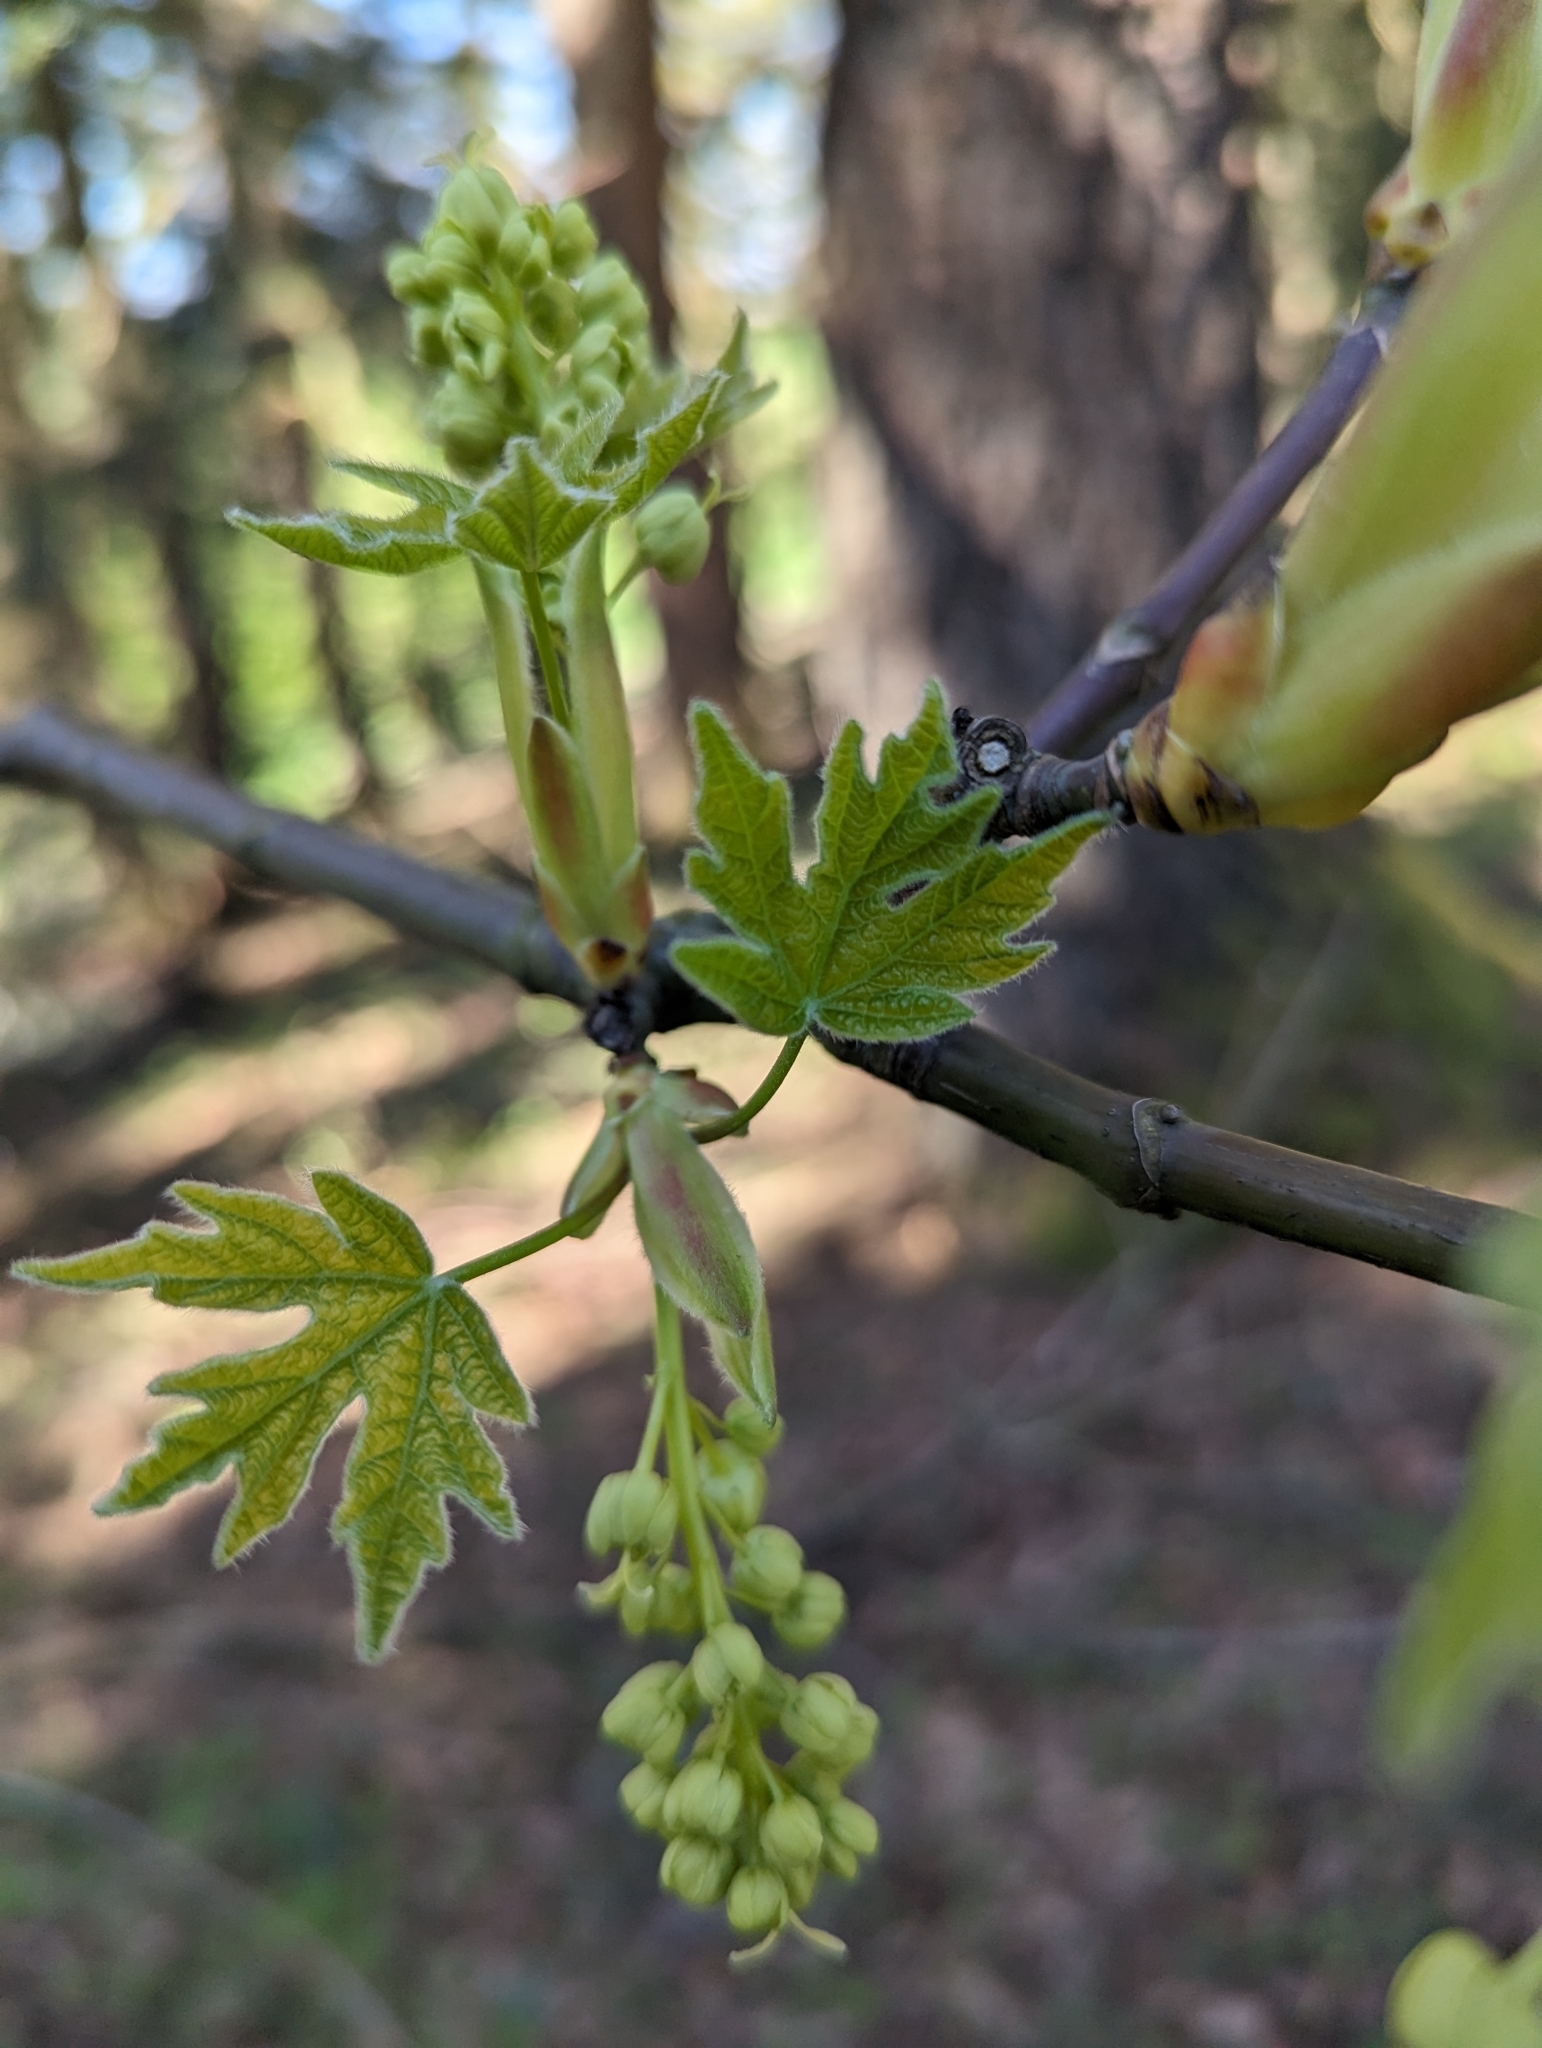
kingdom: Plantae
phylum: Tracheophyta
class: Magnoliopsida
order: Sapindales
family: Sapindaceae
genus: Acer
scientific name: Acer macrophyllum
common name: Oregon maple
